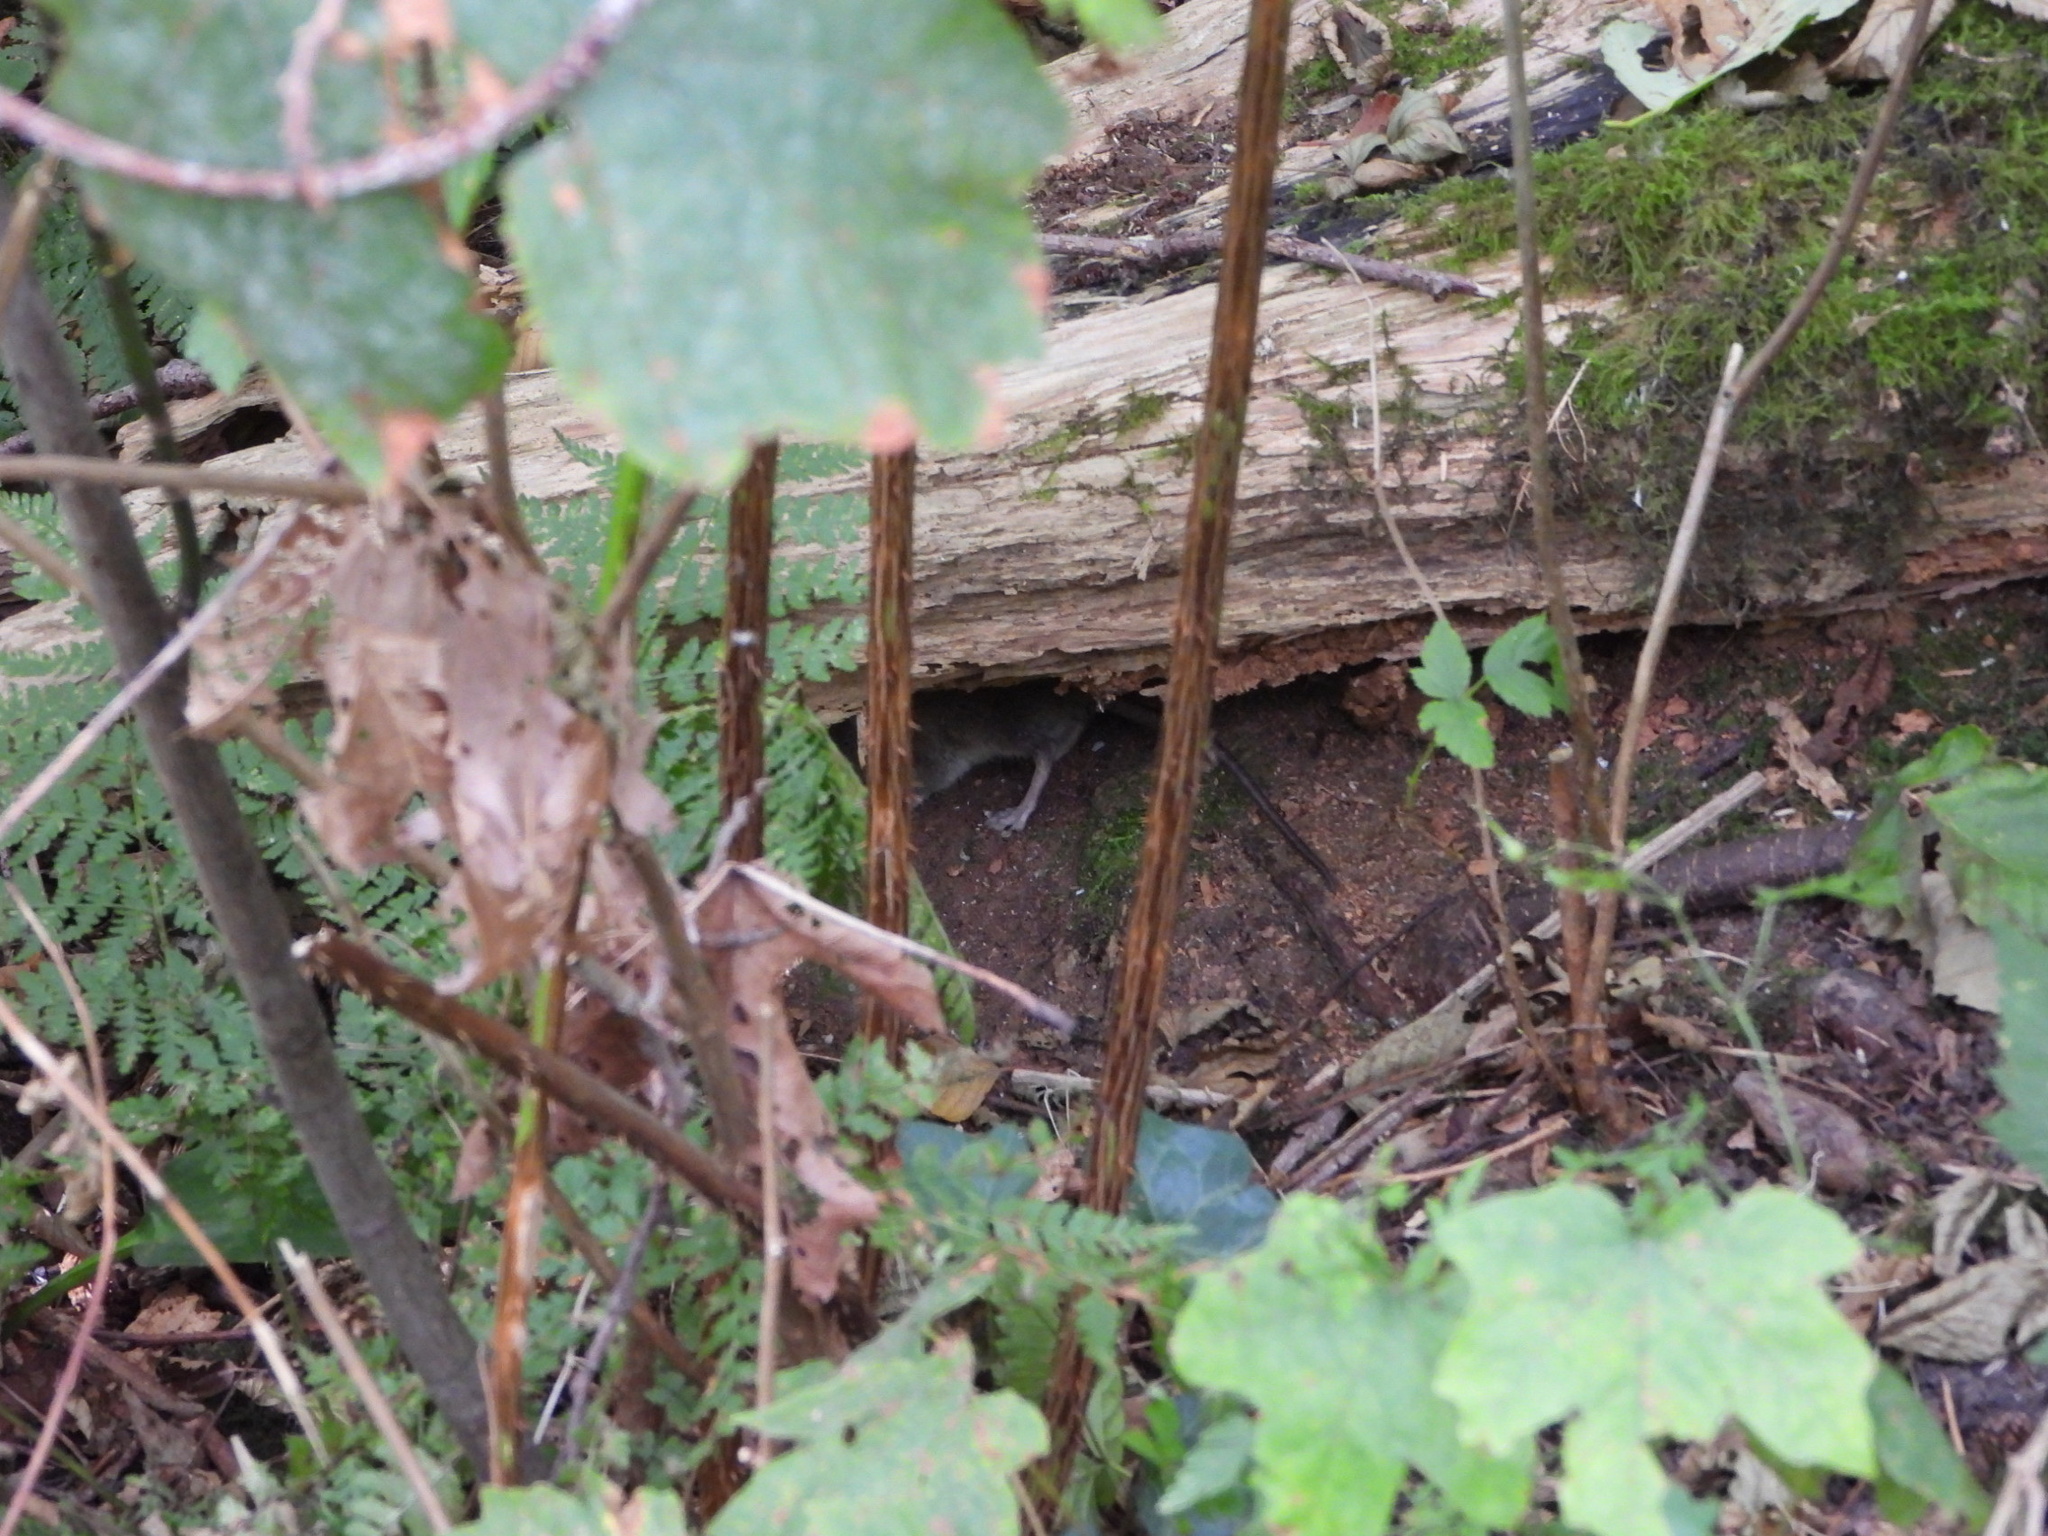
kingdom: Animalia
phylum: Chordata
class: Mammalia
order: Rodentia
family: Muridae
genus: Rattus
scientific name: Rattus rattus
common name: Black rat
